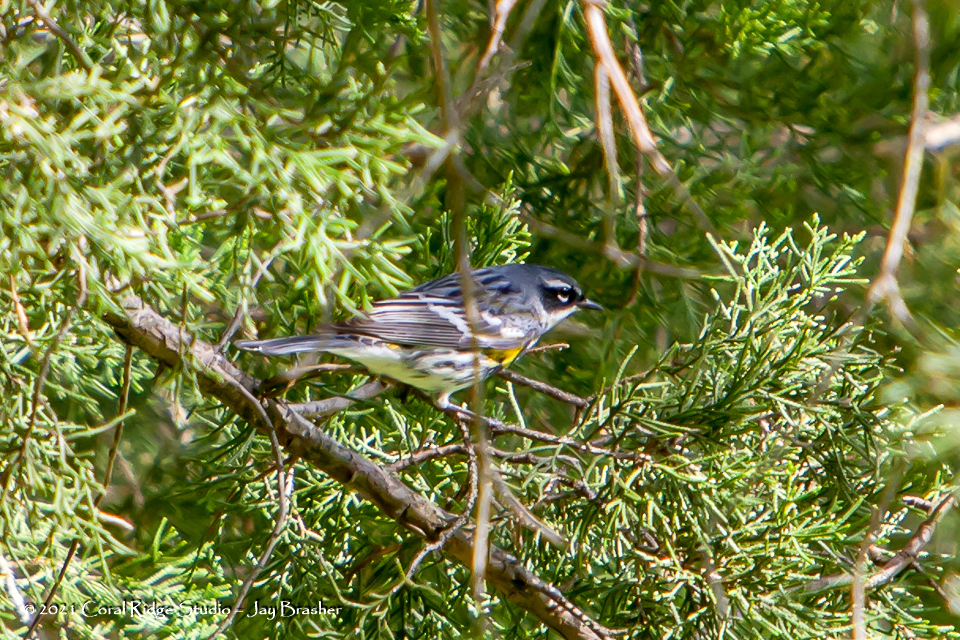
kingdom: Animalia
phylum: Chordata
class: Aves
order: Passeriformes
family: Parulidae
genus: Setophaga
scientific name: Setophaga coronata
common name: Myrtle warbler
